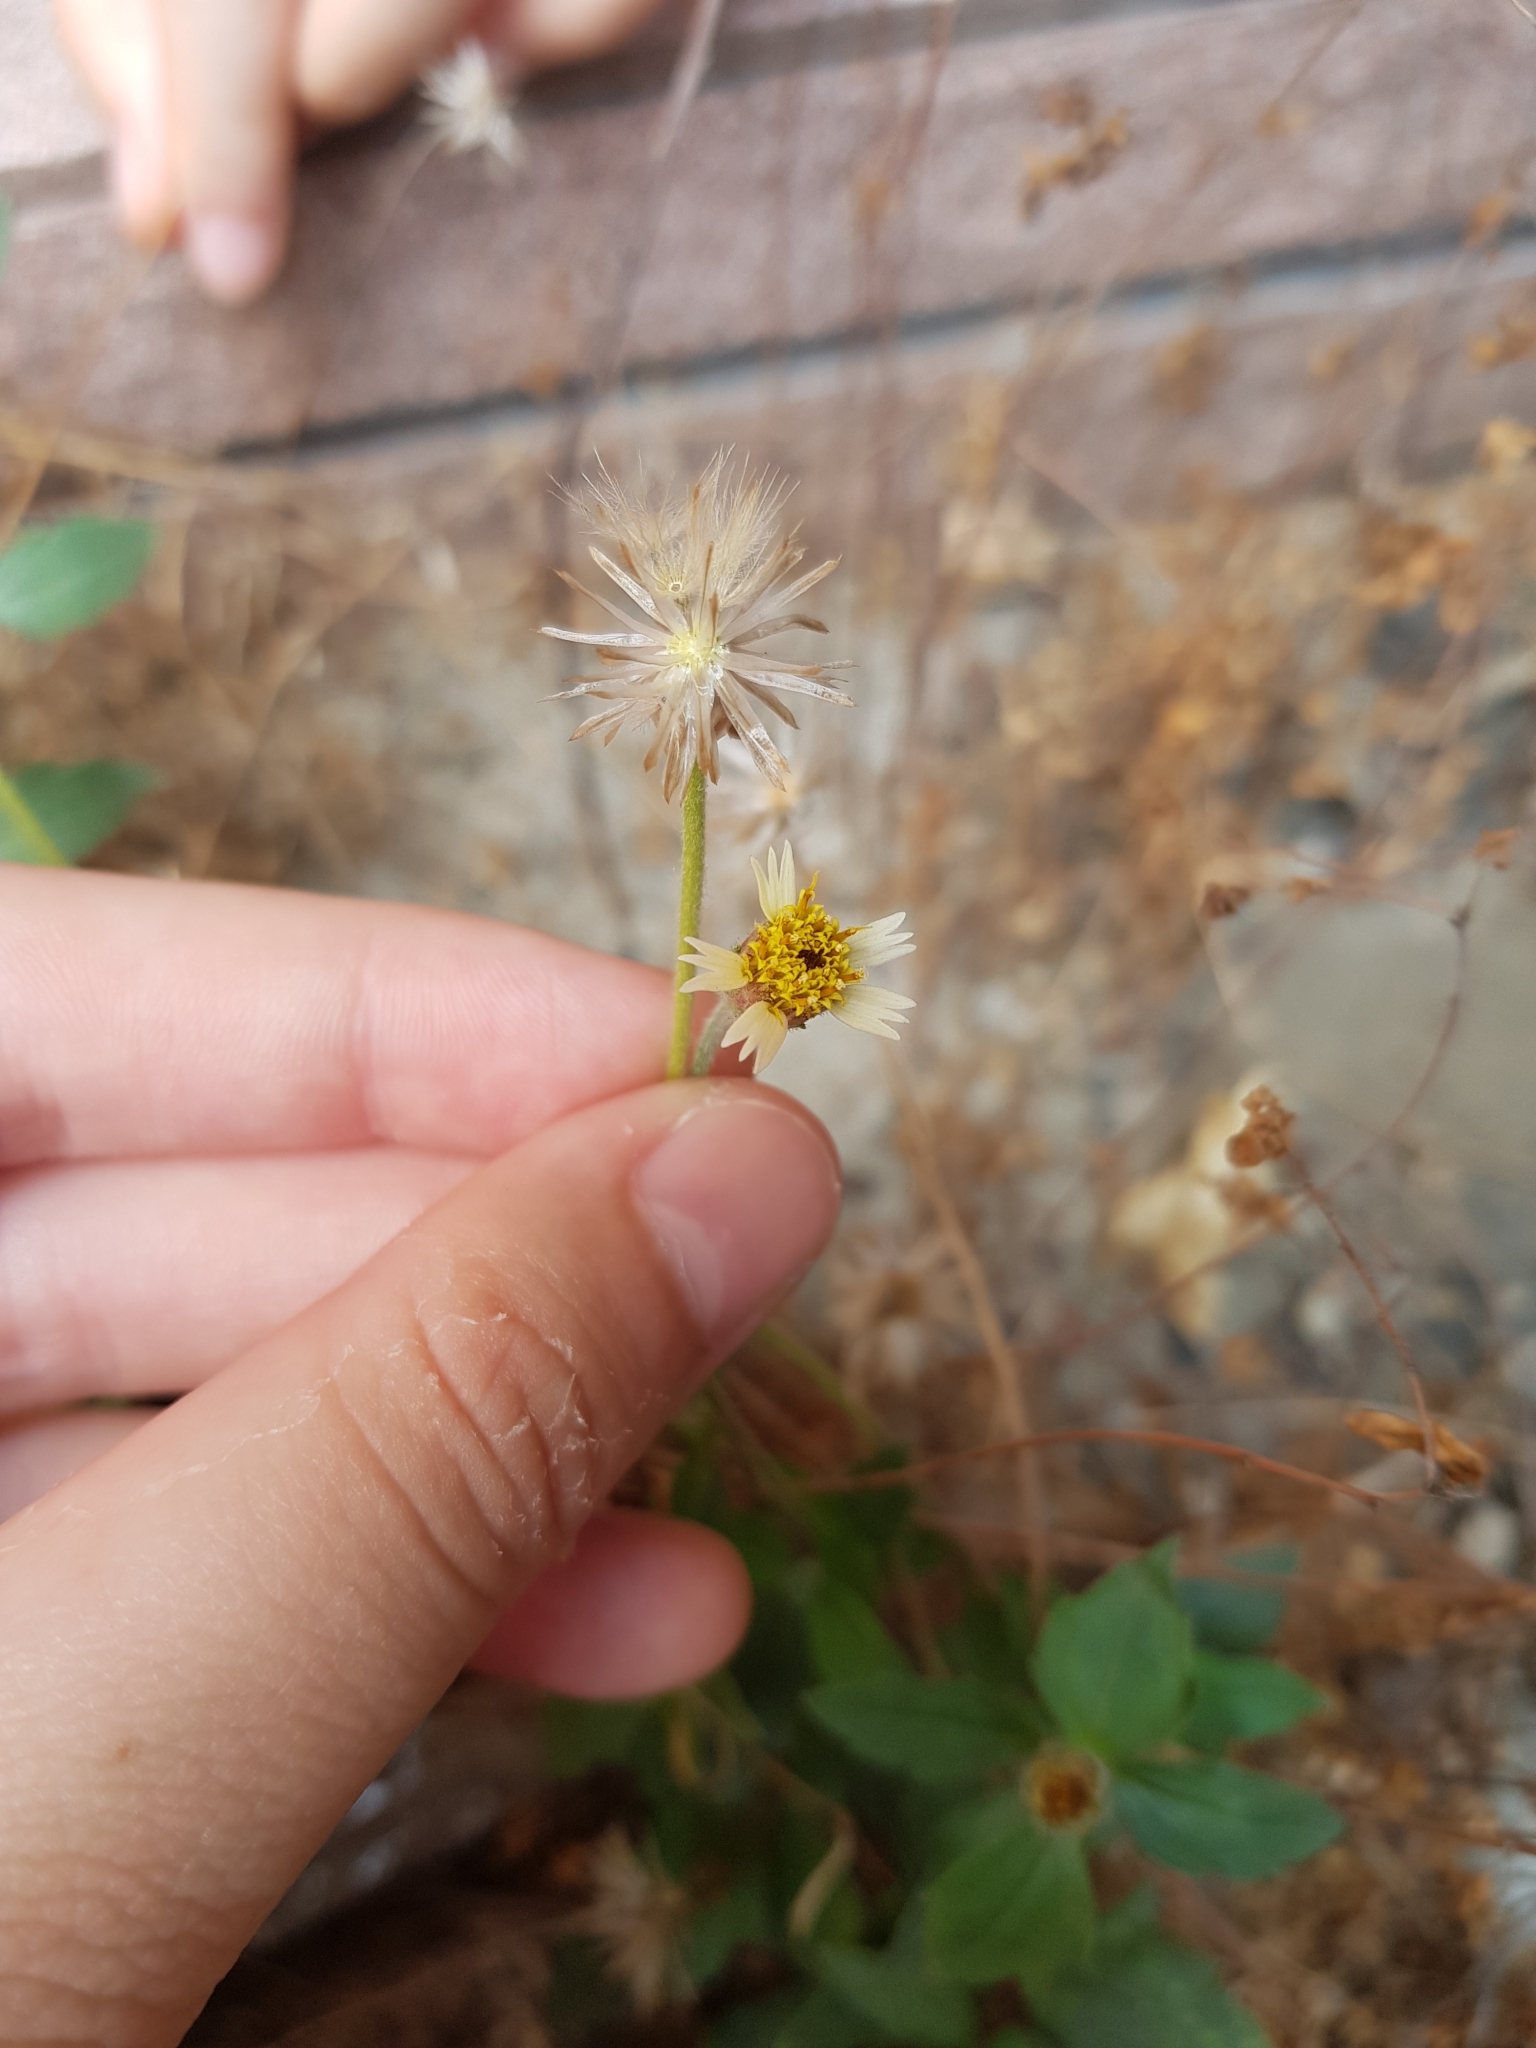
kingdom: Plantae
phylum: Tracheophyta
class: Magnoliopsida
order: Asterales
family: Asteraceae
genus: Tridax
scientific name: Tridax procumbens
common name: Coatbuttons
